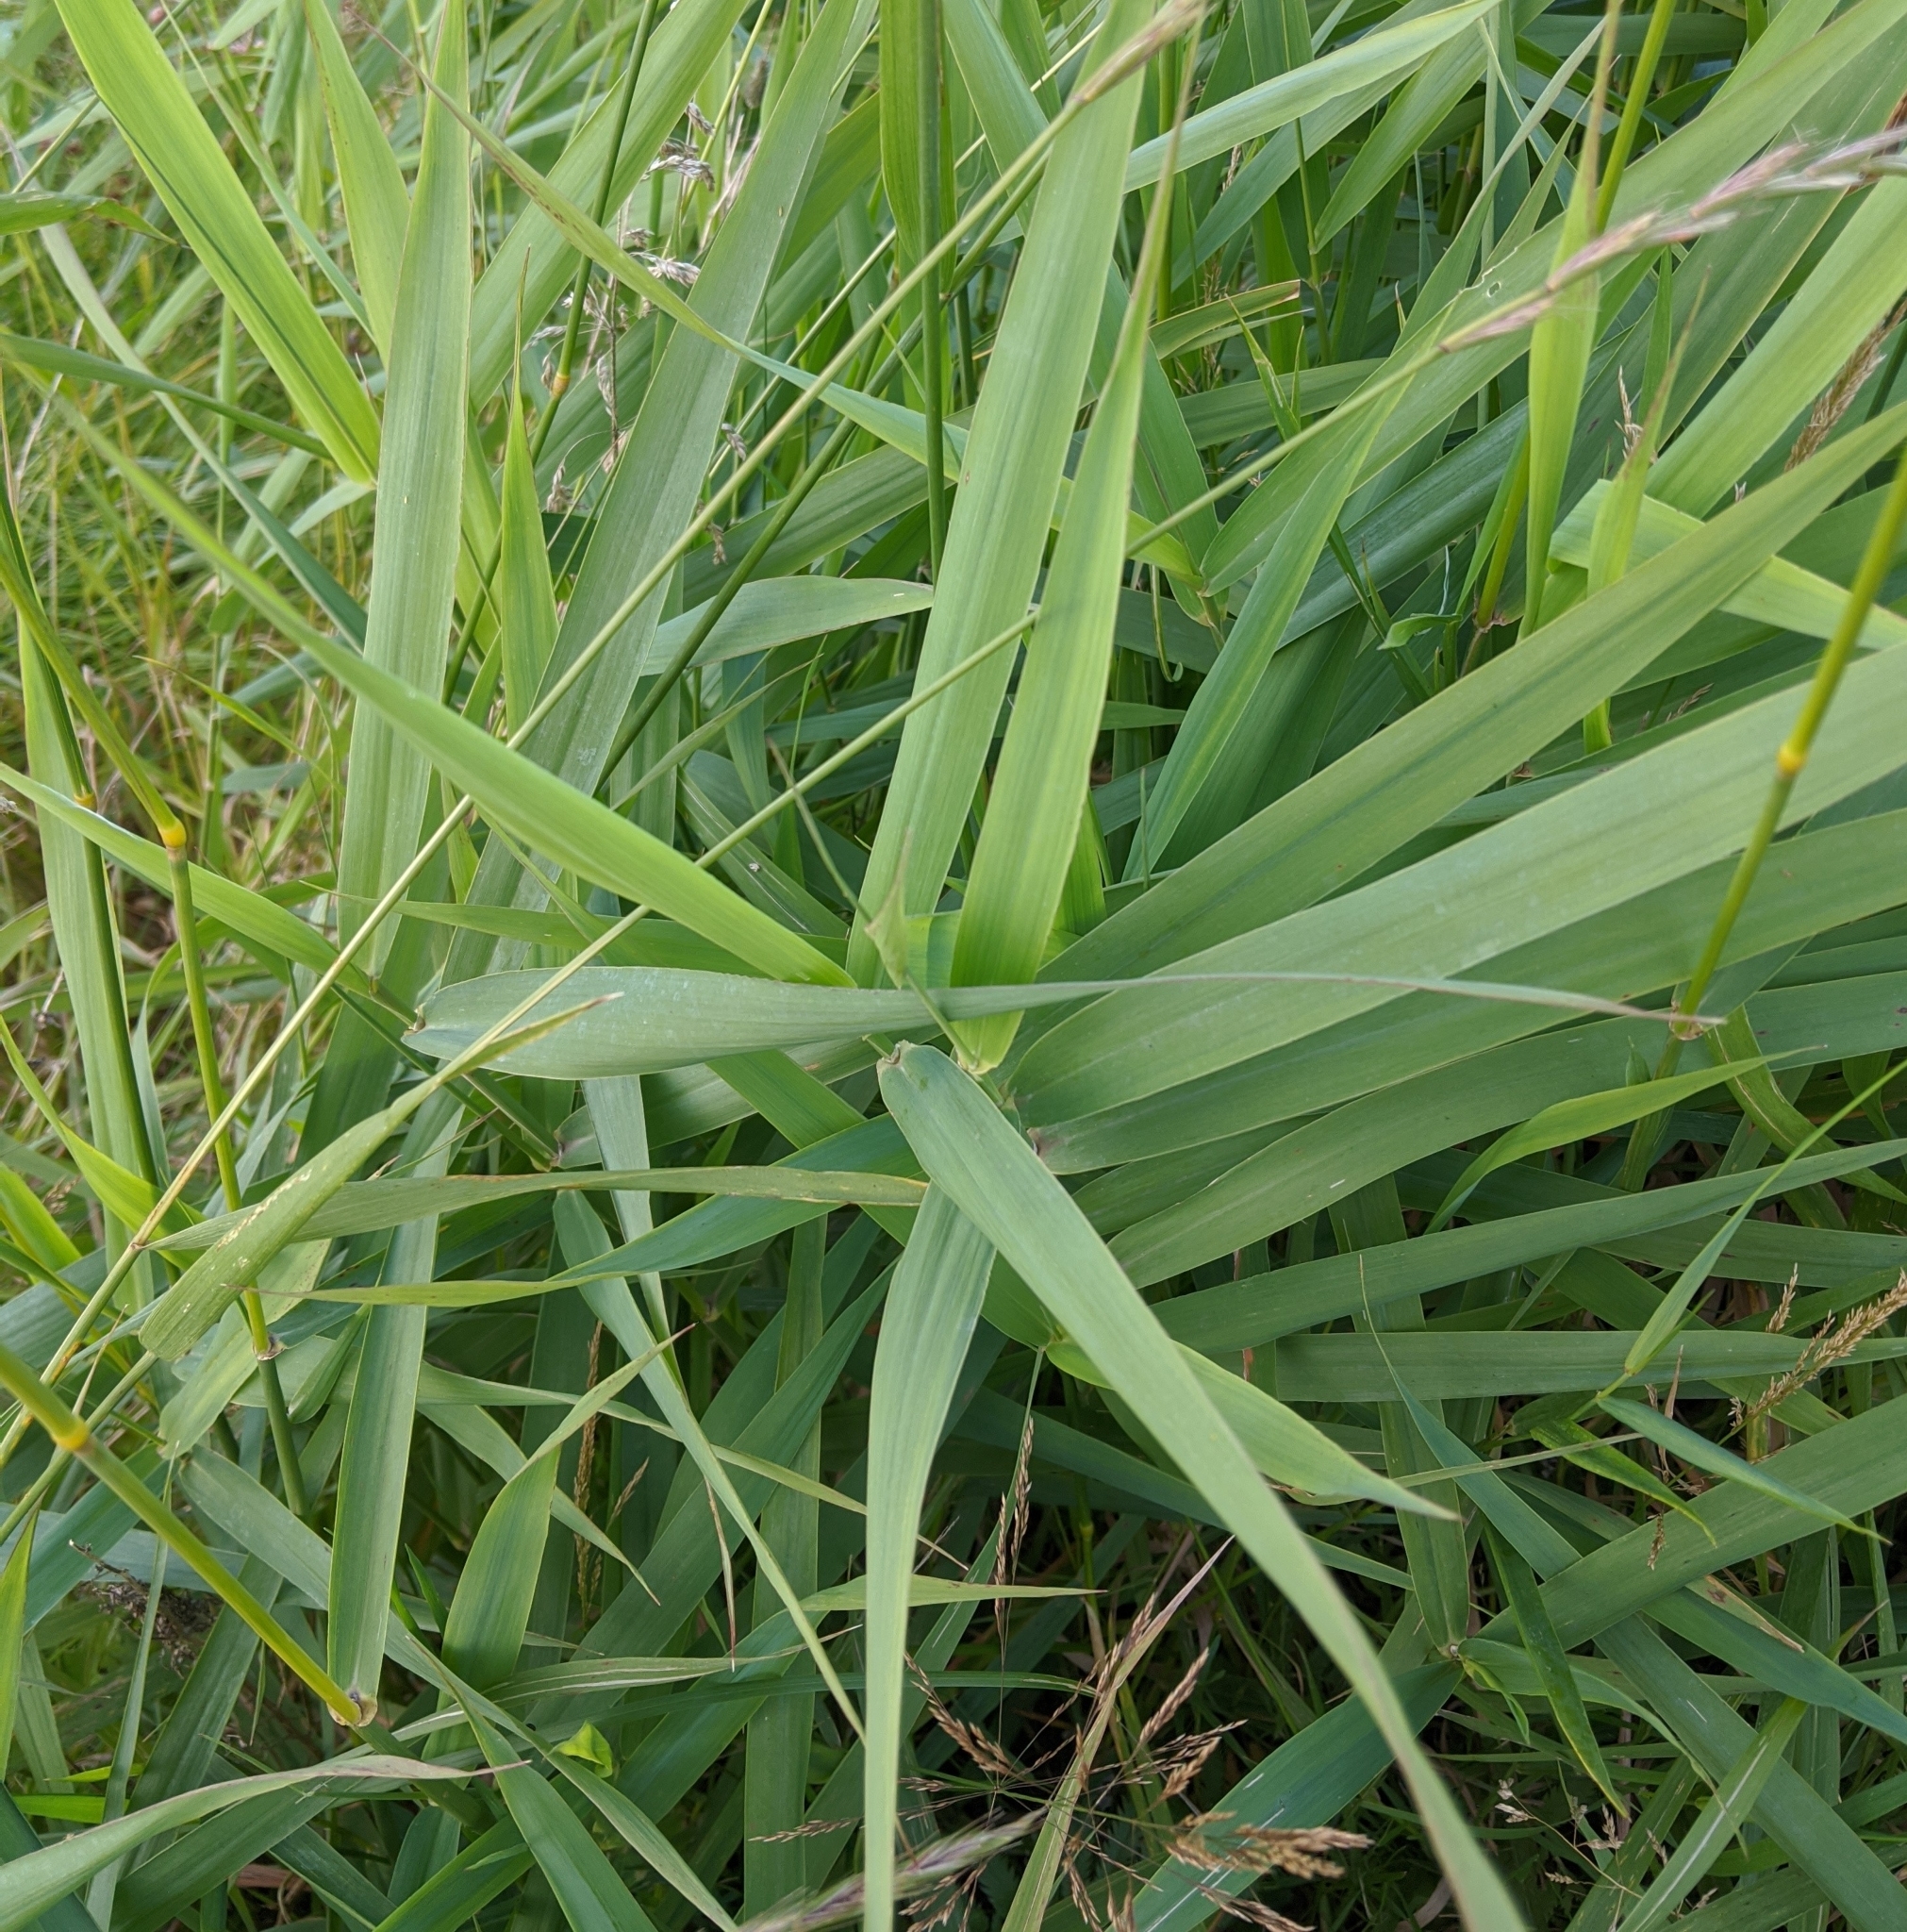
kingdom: Plantae
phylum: Tracheophyta
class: Liliopsida
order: Poales
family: Poaceae
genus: Phalaris
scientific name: Phalaris arundinacea
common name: Reed canary-grass
